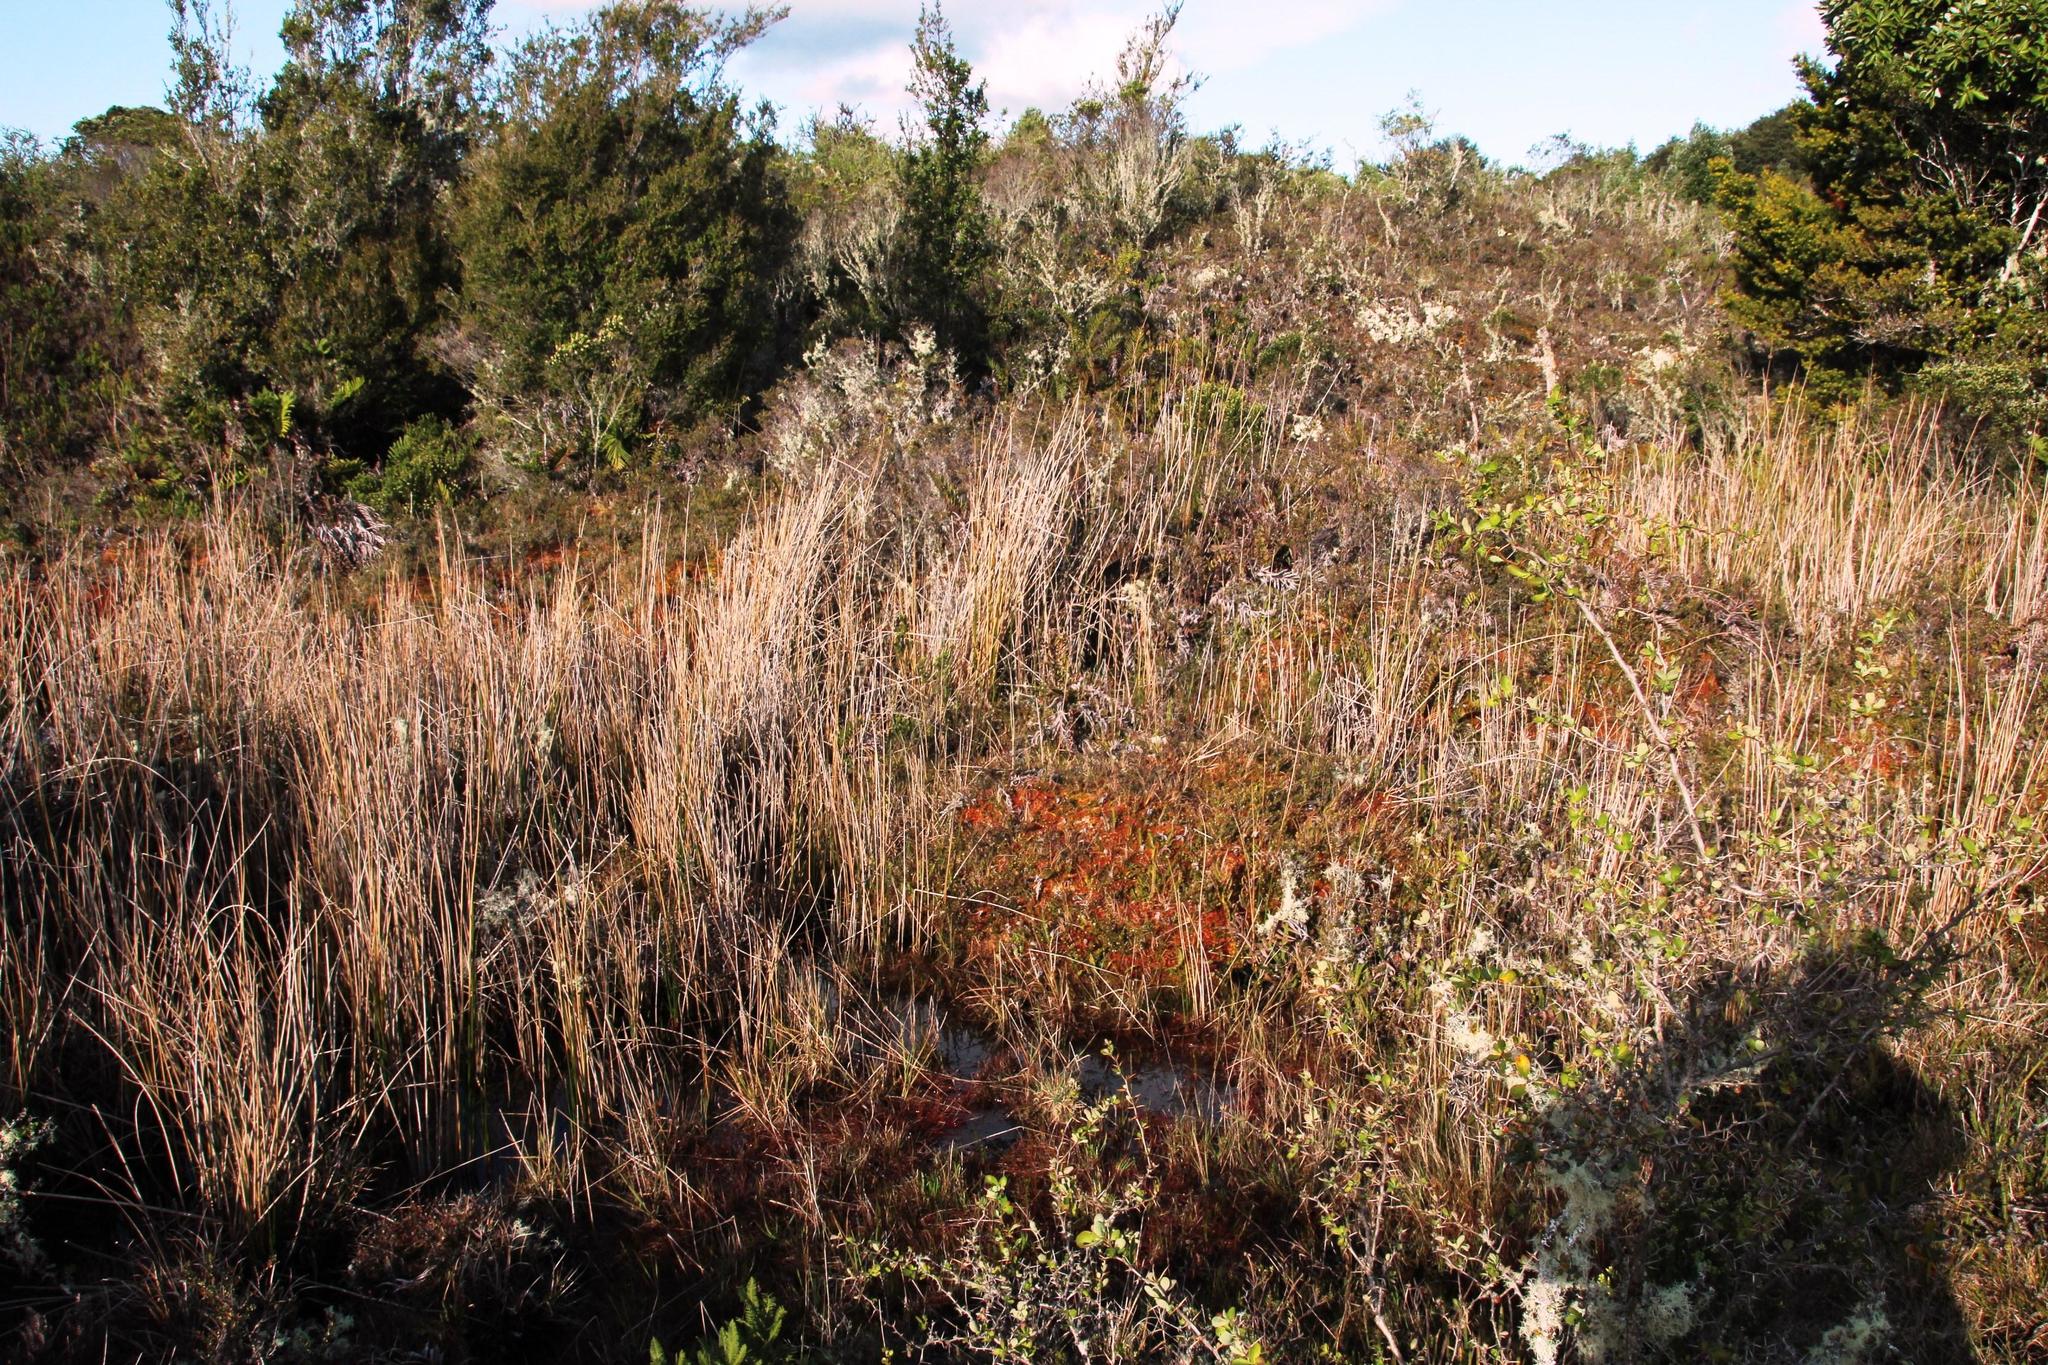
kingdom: Plantae
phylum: Bryophyta
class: Sphagnopsida
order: Sphagnales
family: Sphagnaceae
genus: Sphagnum
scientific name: Sphagnum magellanicum
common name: Magellan's peat moss
